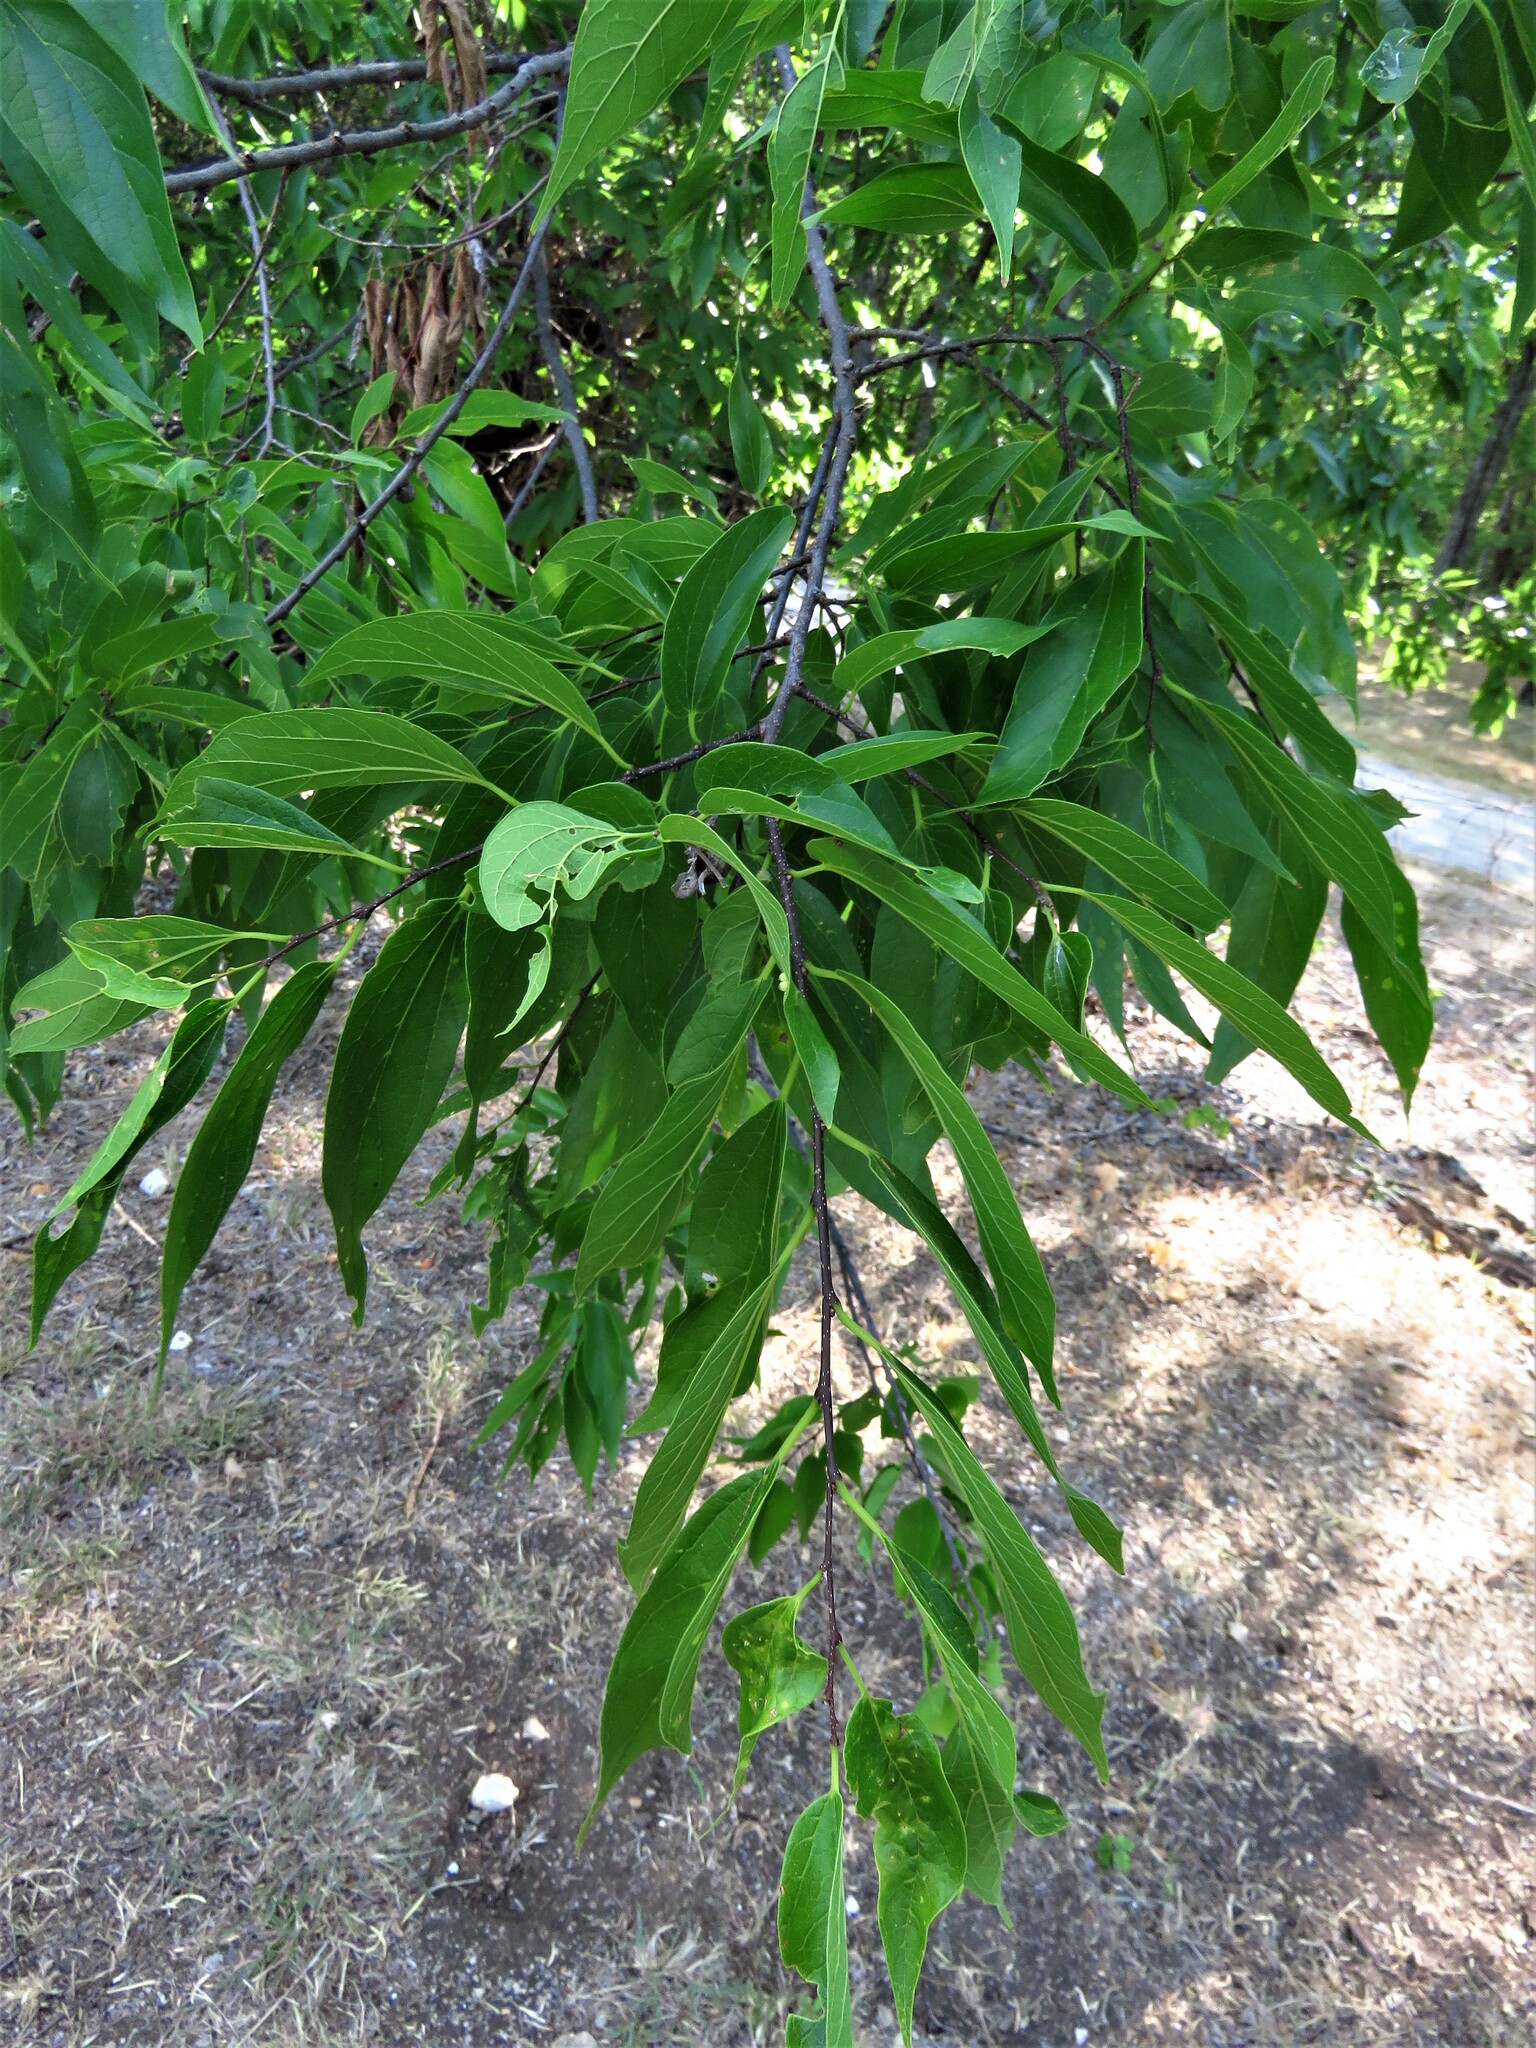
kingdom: Plantae
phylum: Tracheophyta
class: Magnoliopsida
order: Rosales
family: Cannabaceae
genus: Celtis
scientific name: Celtis laevigata
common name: Sugarberry
